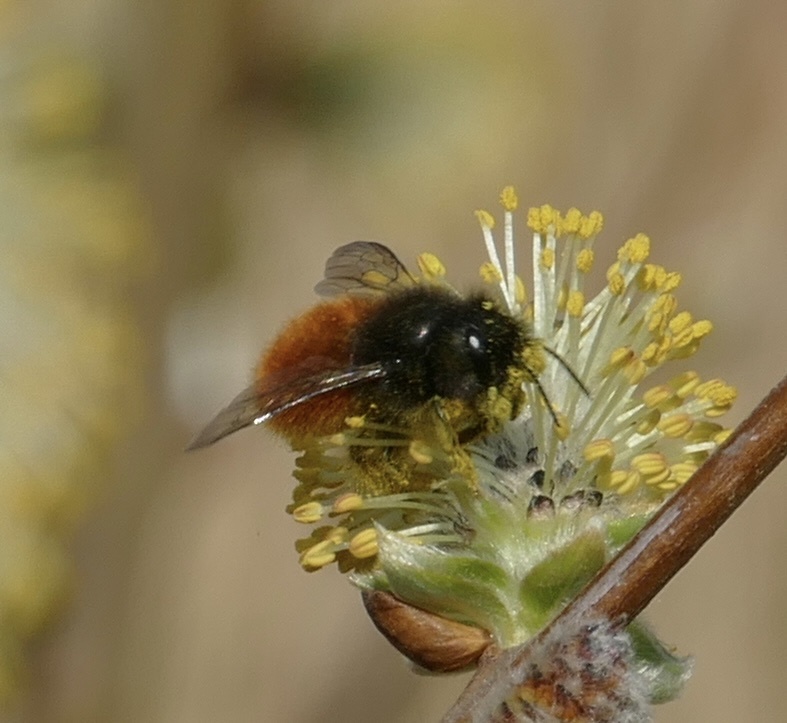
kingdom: Animalia
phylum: Arthropoda
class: Insecta
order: Hymenoptera
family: Megachilidae
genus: Osmia
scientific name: Osmia cornuta
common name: Mason bee
